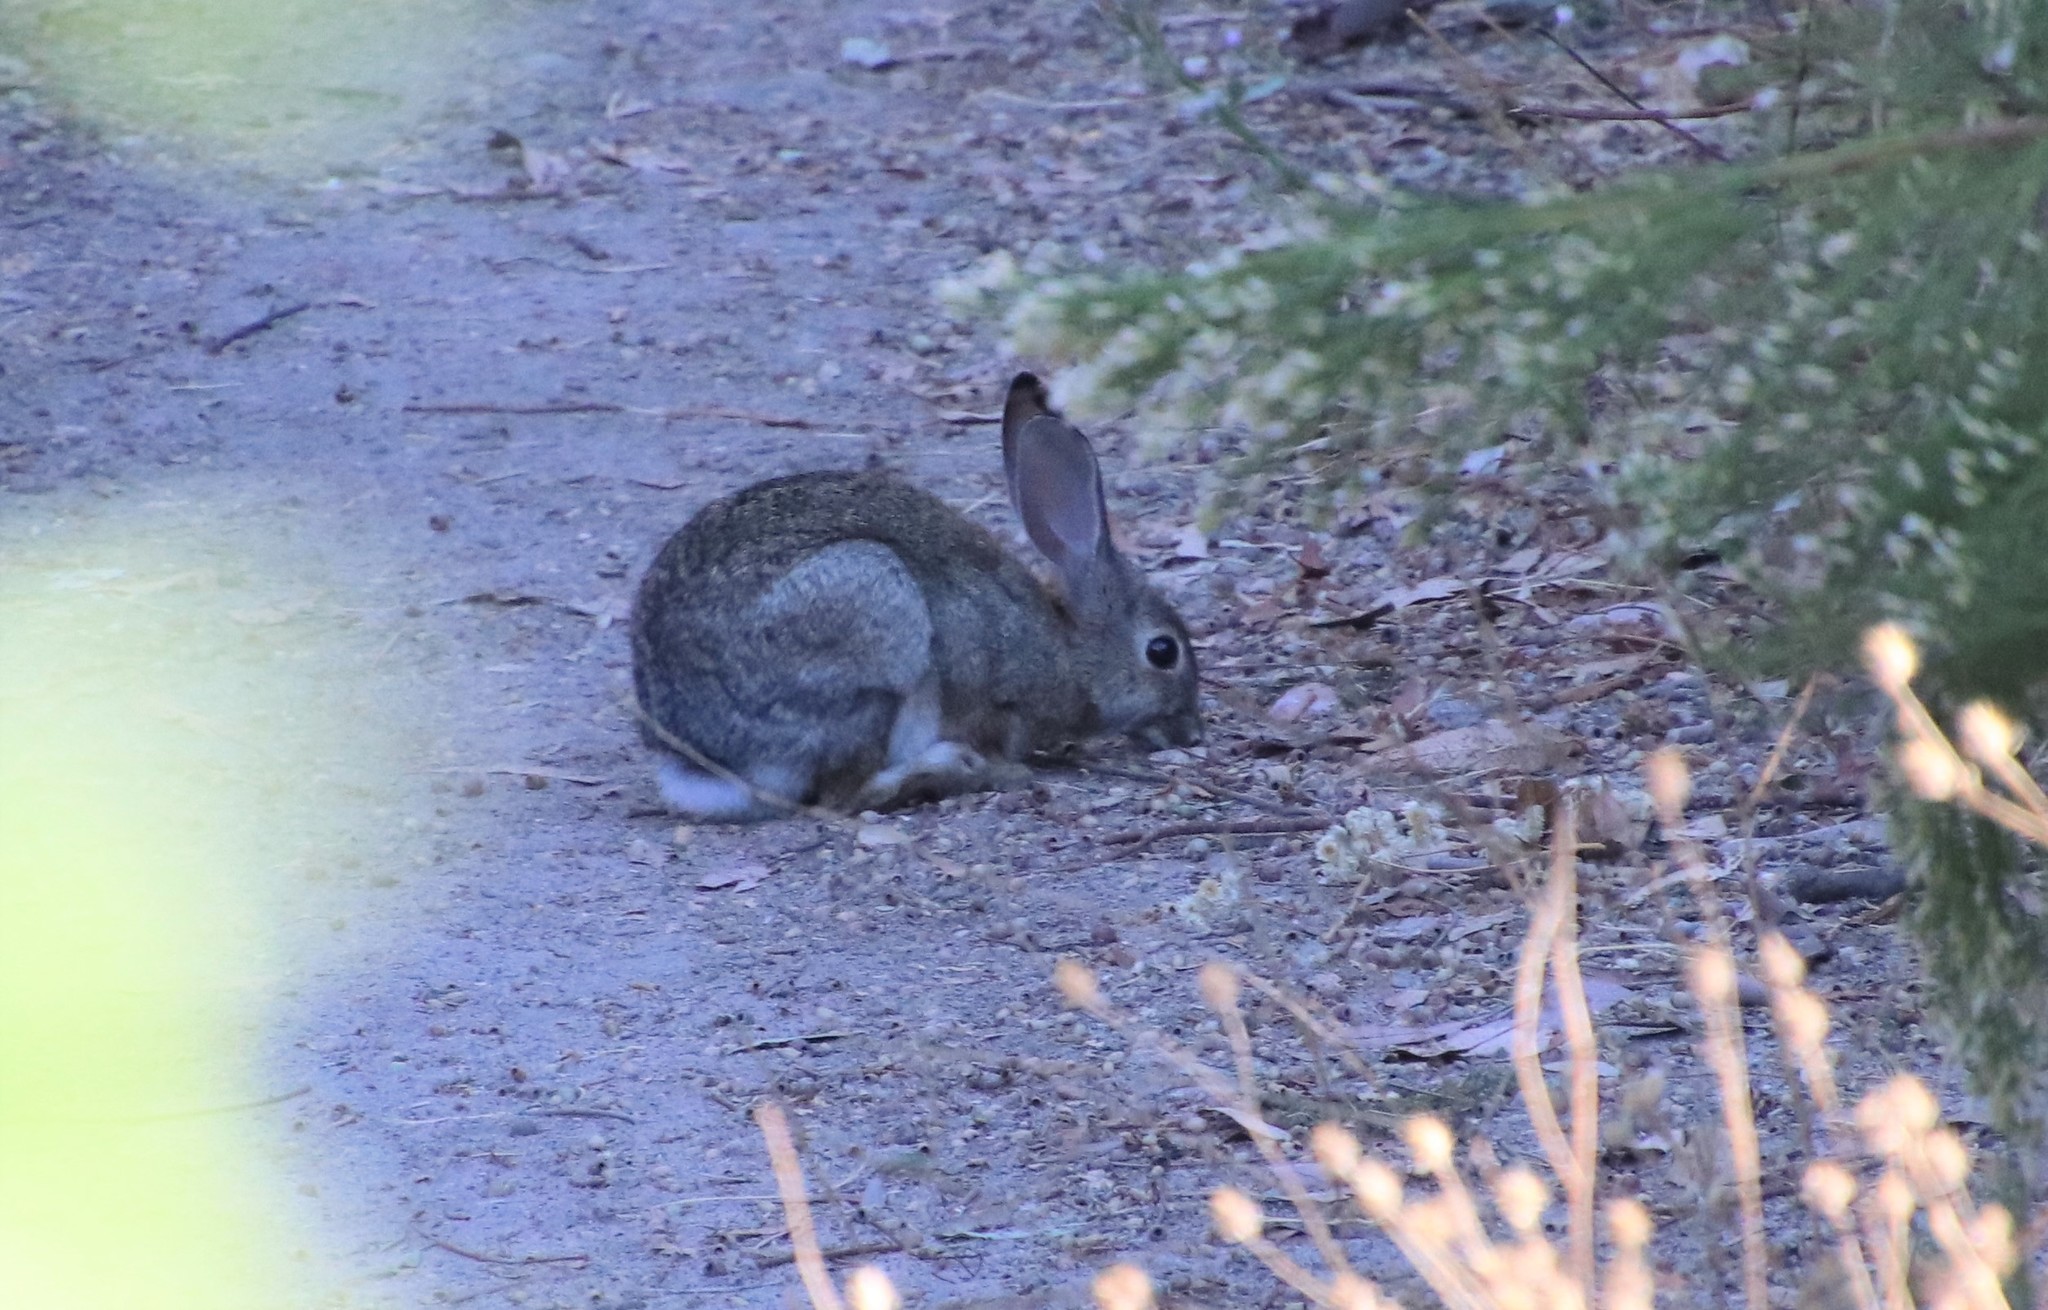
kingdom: Animalia
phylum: Chordata
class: Mammalia
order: Lagomorpha
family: Leporidae
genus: Sylvilagus
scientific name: Sylvilagus audubonii
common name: Desert cottontail
